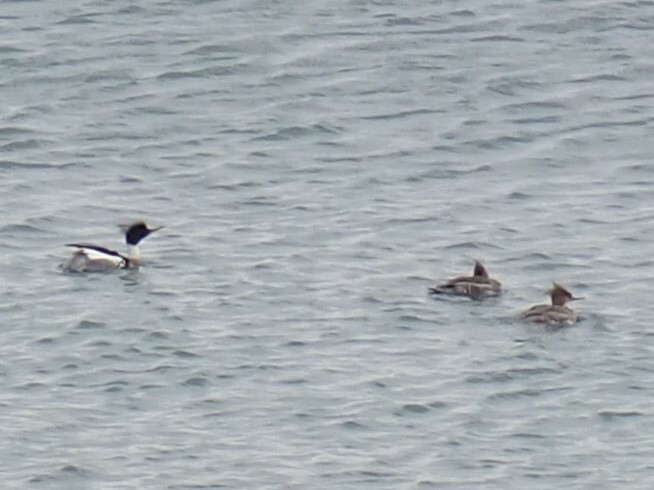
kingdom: Animalia
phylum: Chordata
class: Aves
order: Anseriformes
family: Anatidae
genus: Mergus
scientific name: Mergus serrator
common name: Red-breasted merganser
